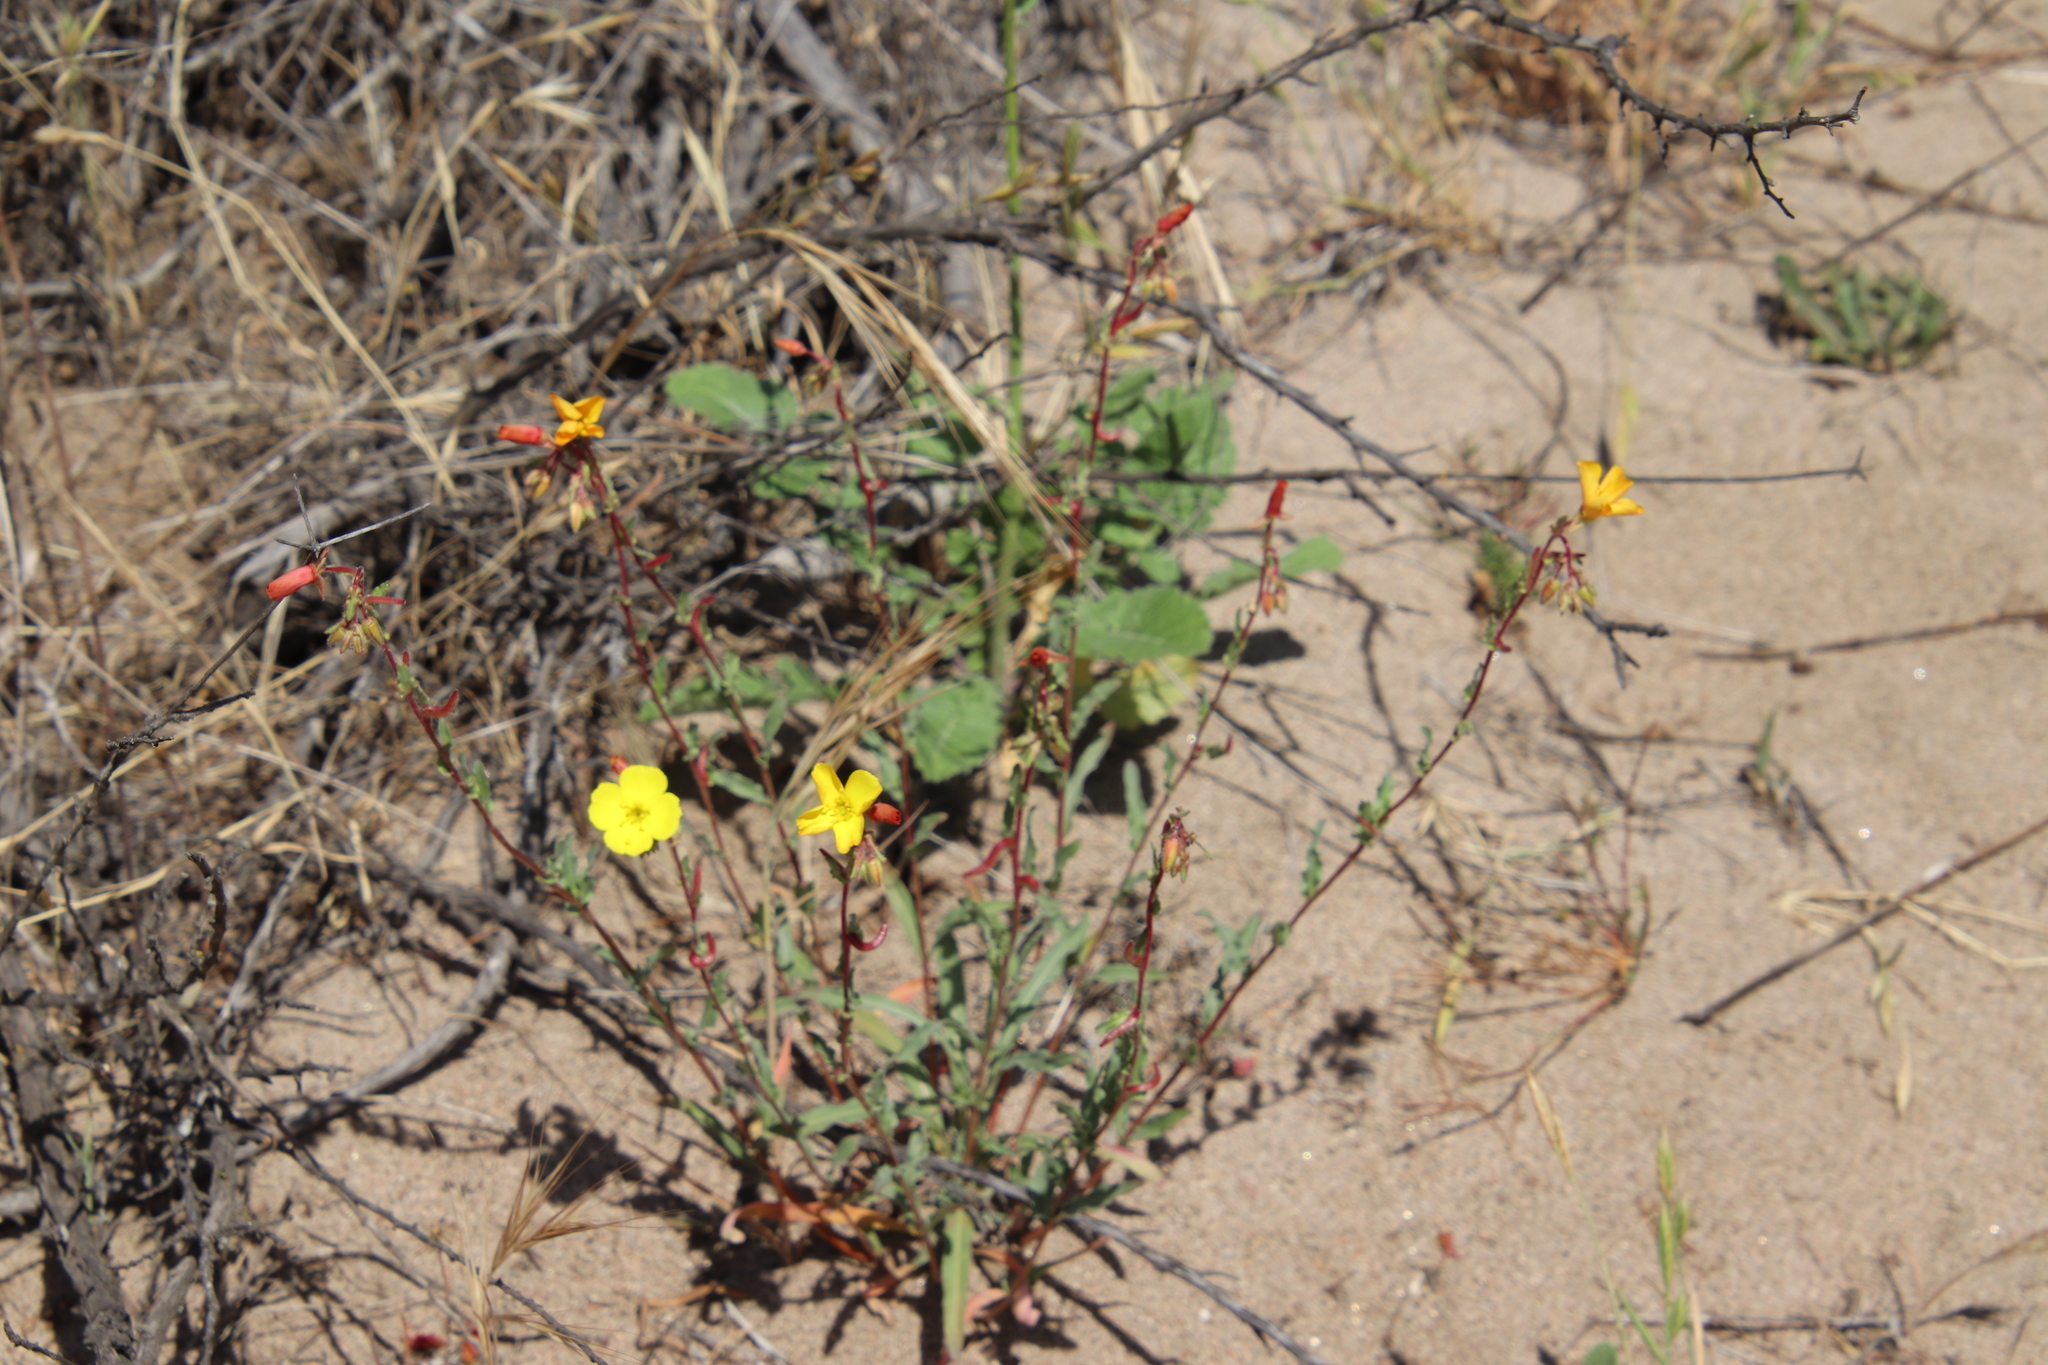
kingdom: Plantae
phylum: Tracheophyta
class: Magnoliopsida
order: Myrtales
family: Onagraceae
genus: Camissoniopsis
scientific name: Camissoniopsis bistorta
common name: Southern suncup
